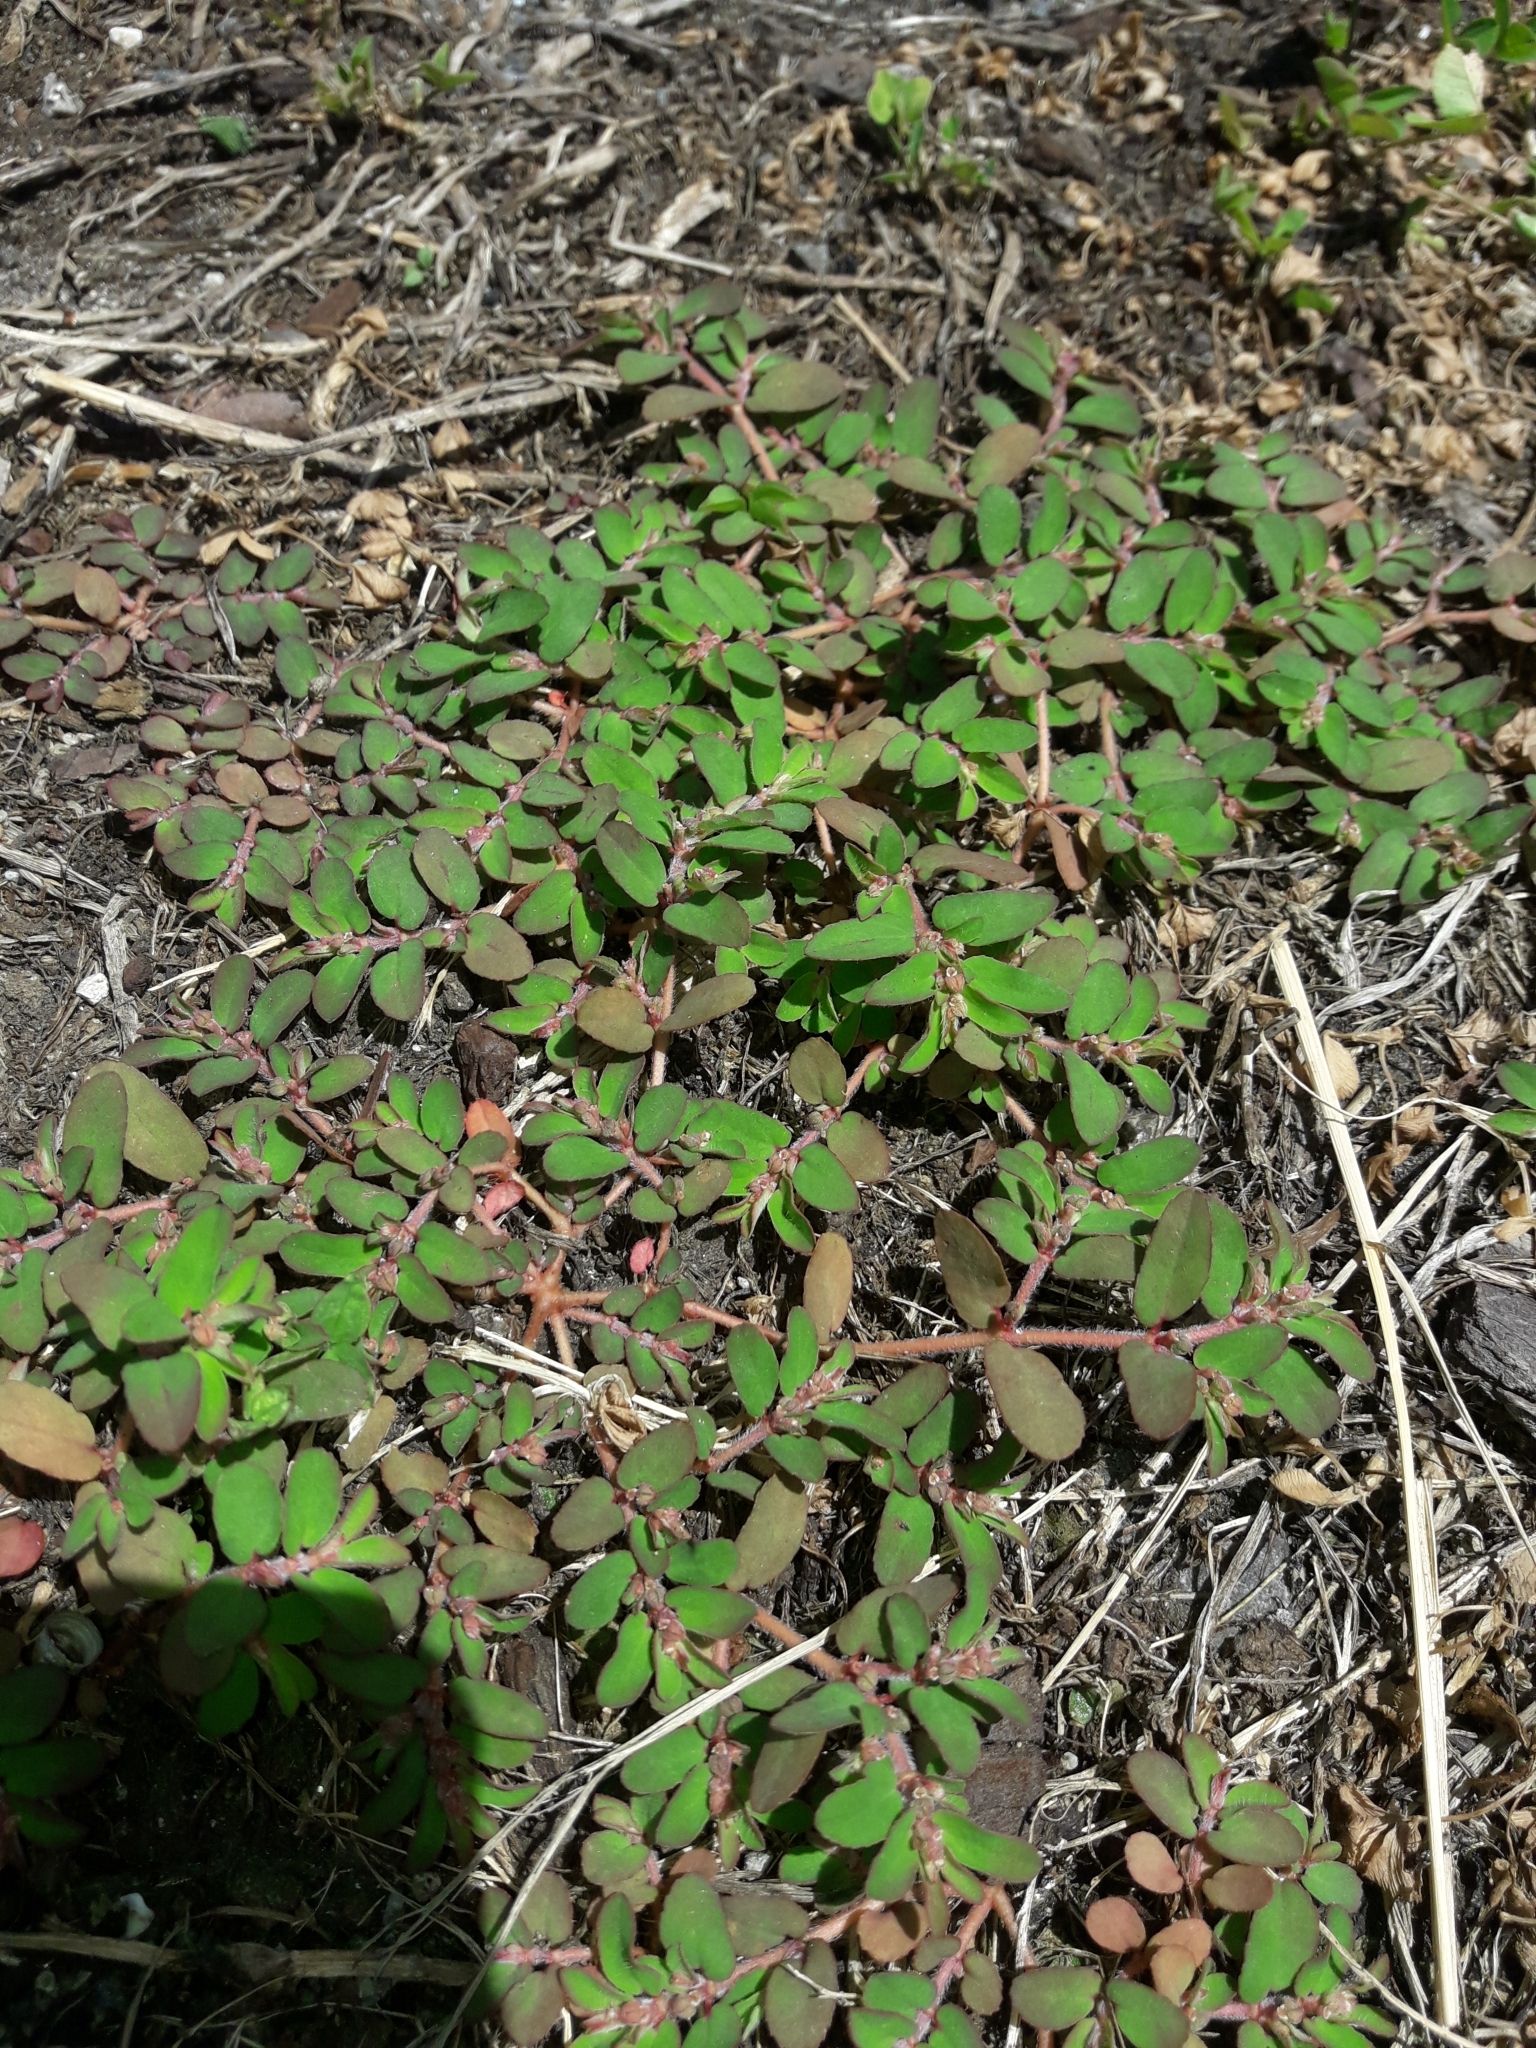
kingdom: Plantae
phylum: Tracheophyta
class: Magnoliopsida
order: Malpighiales
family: Euphorbiaceae
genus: Euphorbia
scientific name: Euphorbia maculata
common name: Spotted spurge
